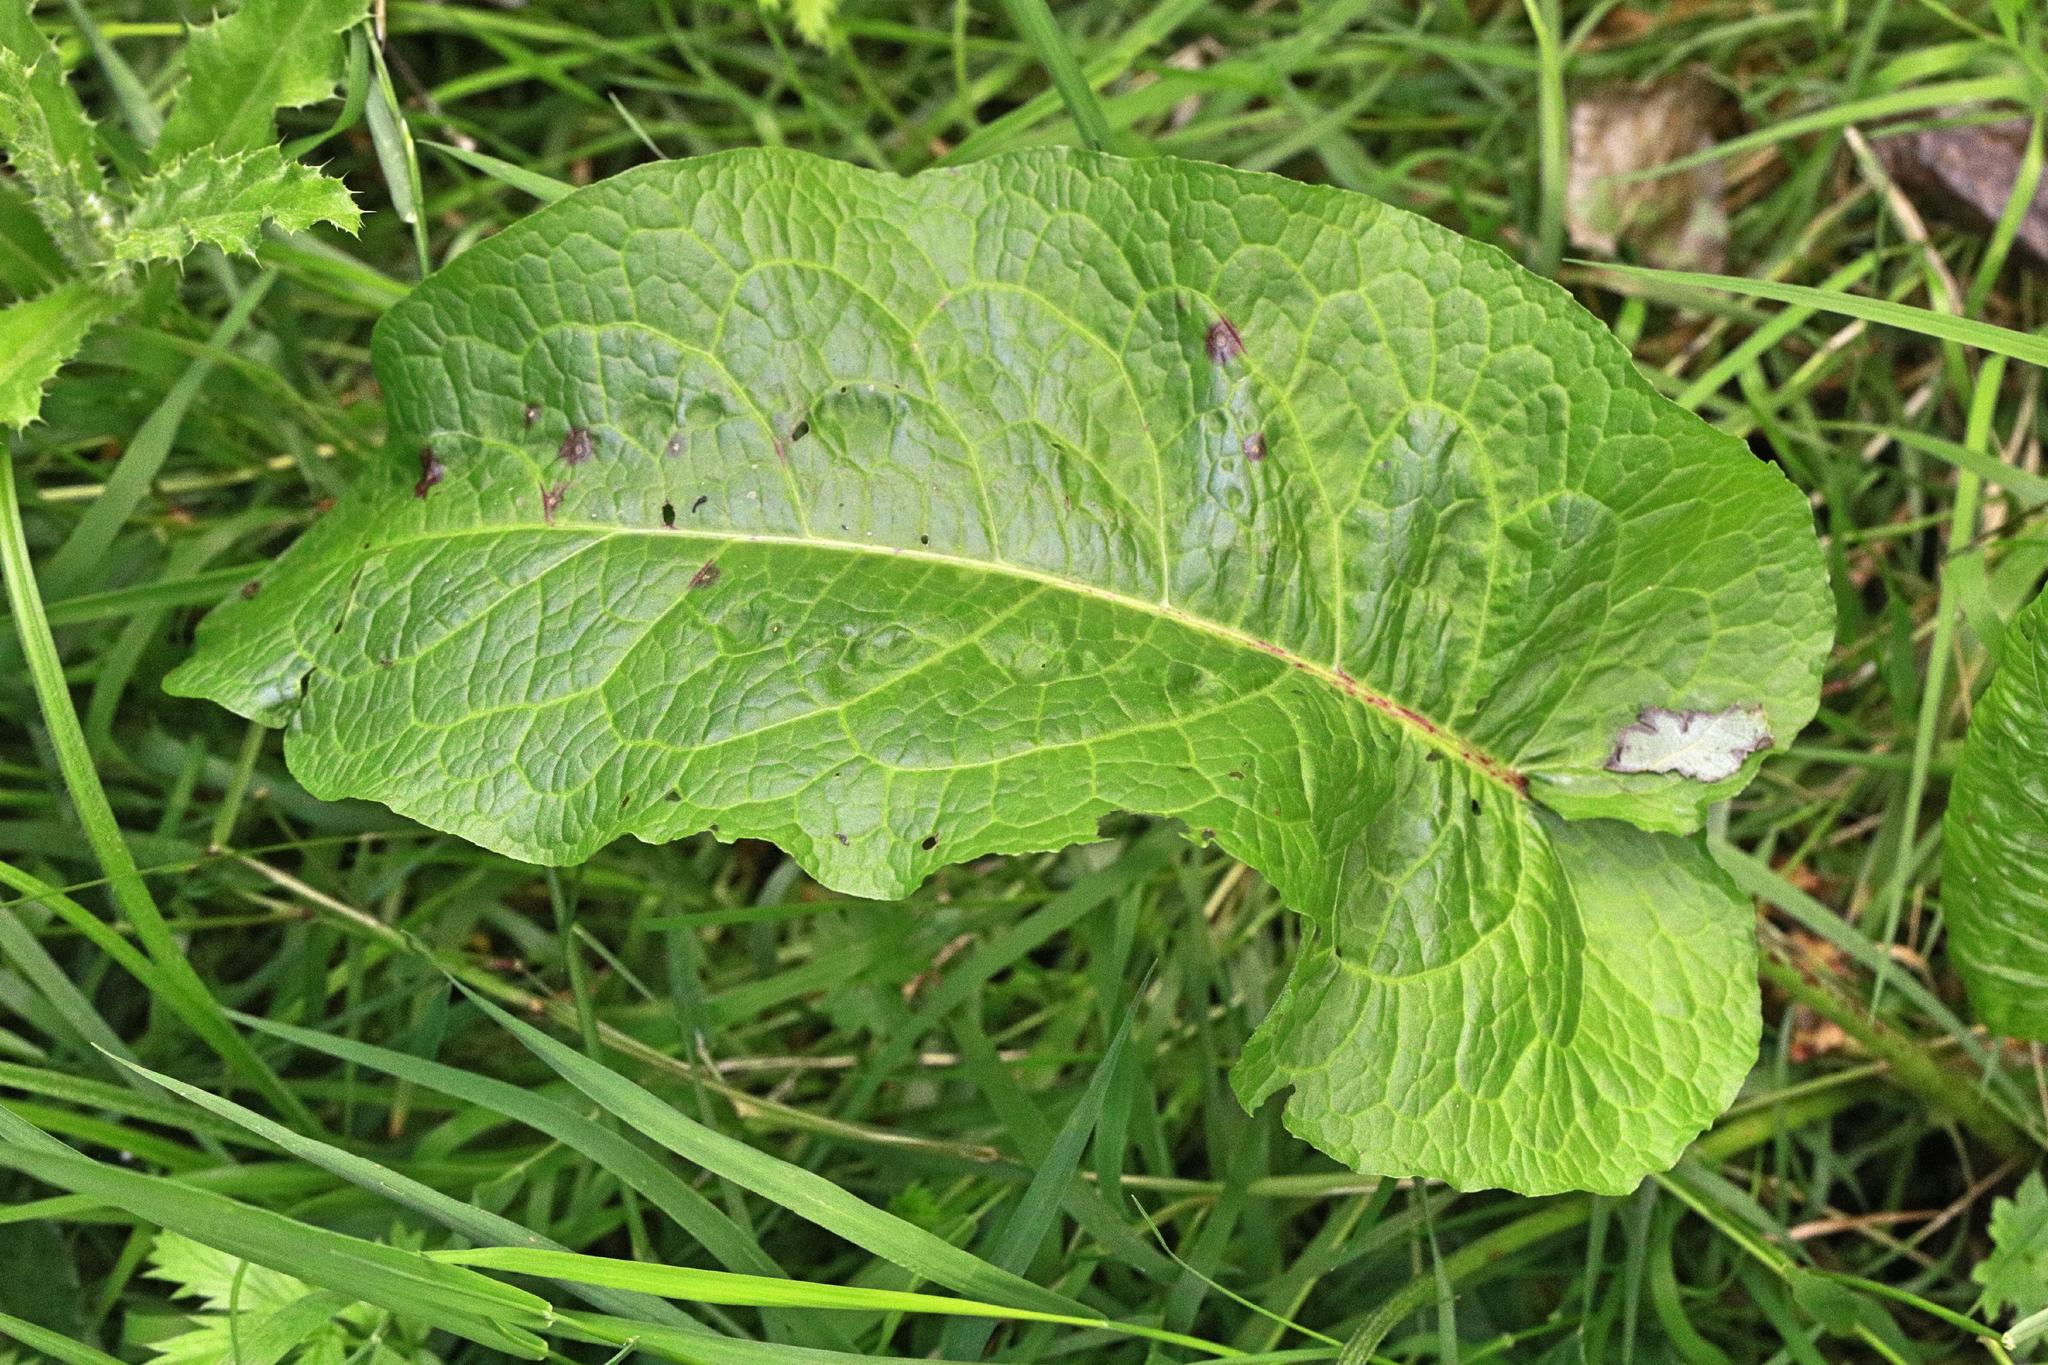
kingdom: Plantae
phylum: Tracheophyta
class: Magnoliopsida
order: Caryophyllales
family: Polygonaceae
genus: Rumex
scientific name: Rumex obtusifolius
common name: Bitter dock
